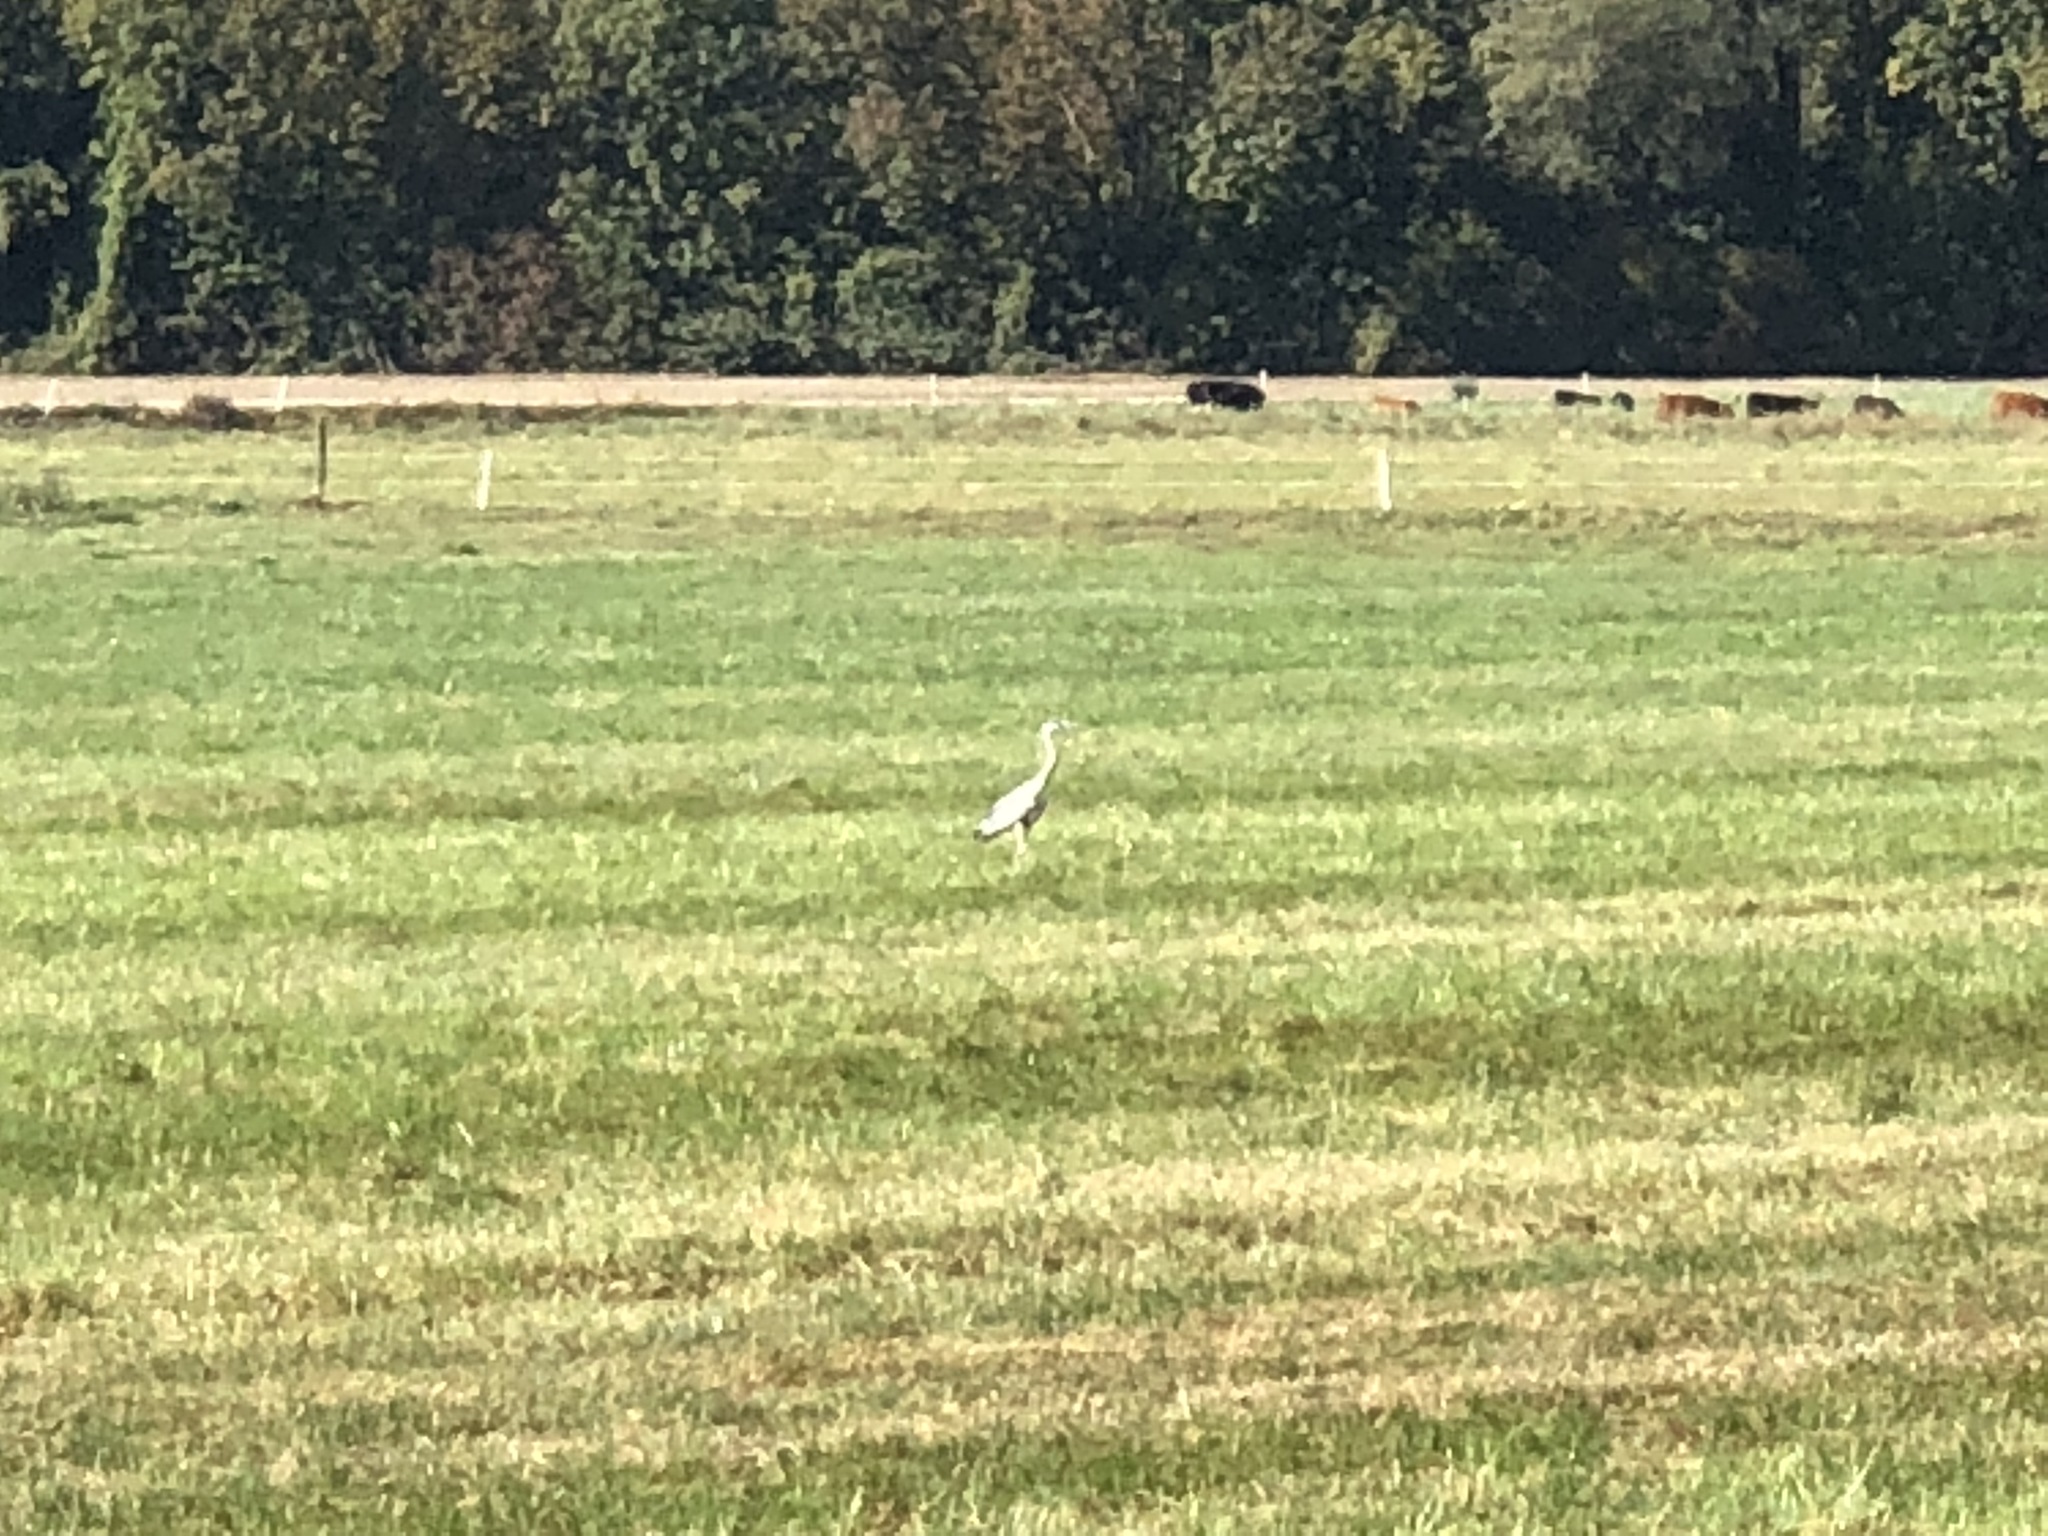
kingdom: Animalia
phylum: Chordata
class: Aves
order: Pelecaniformes
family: Ardeidae
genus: Ardea
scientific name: Ardea cinerea
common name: Grey heron
